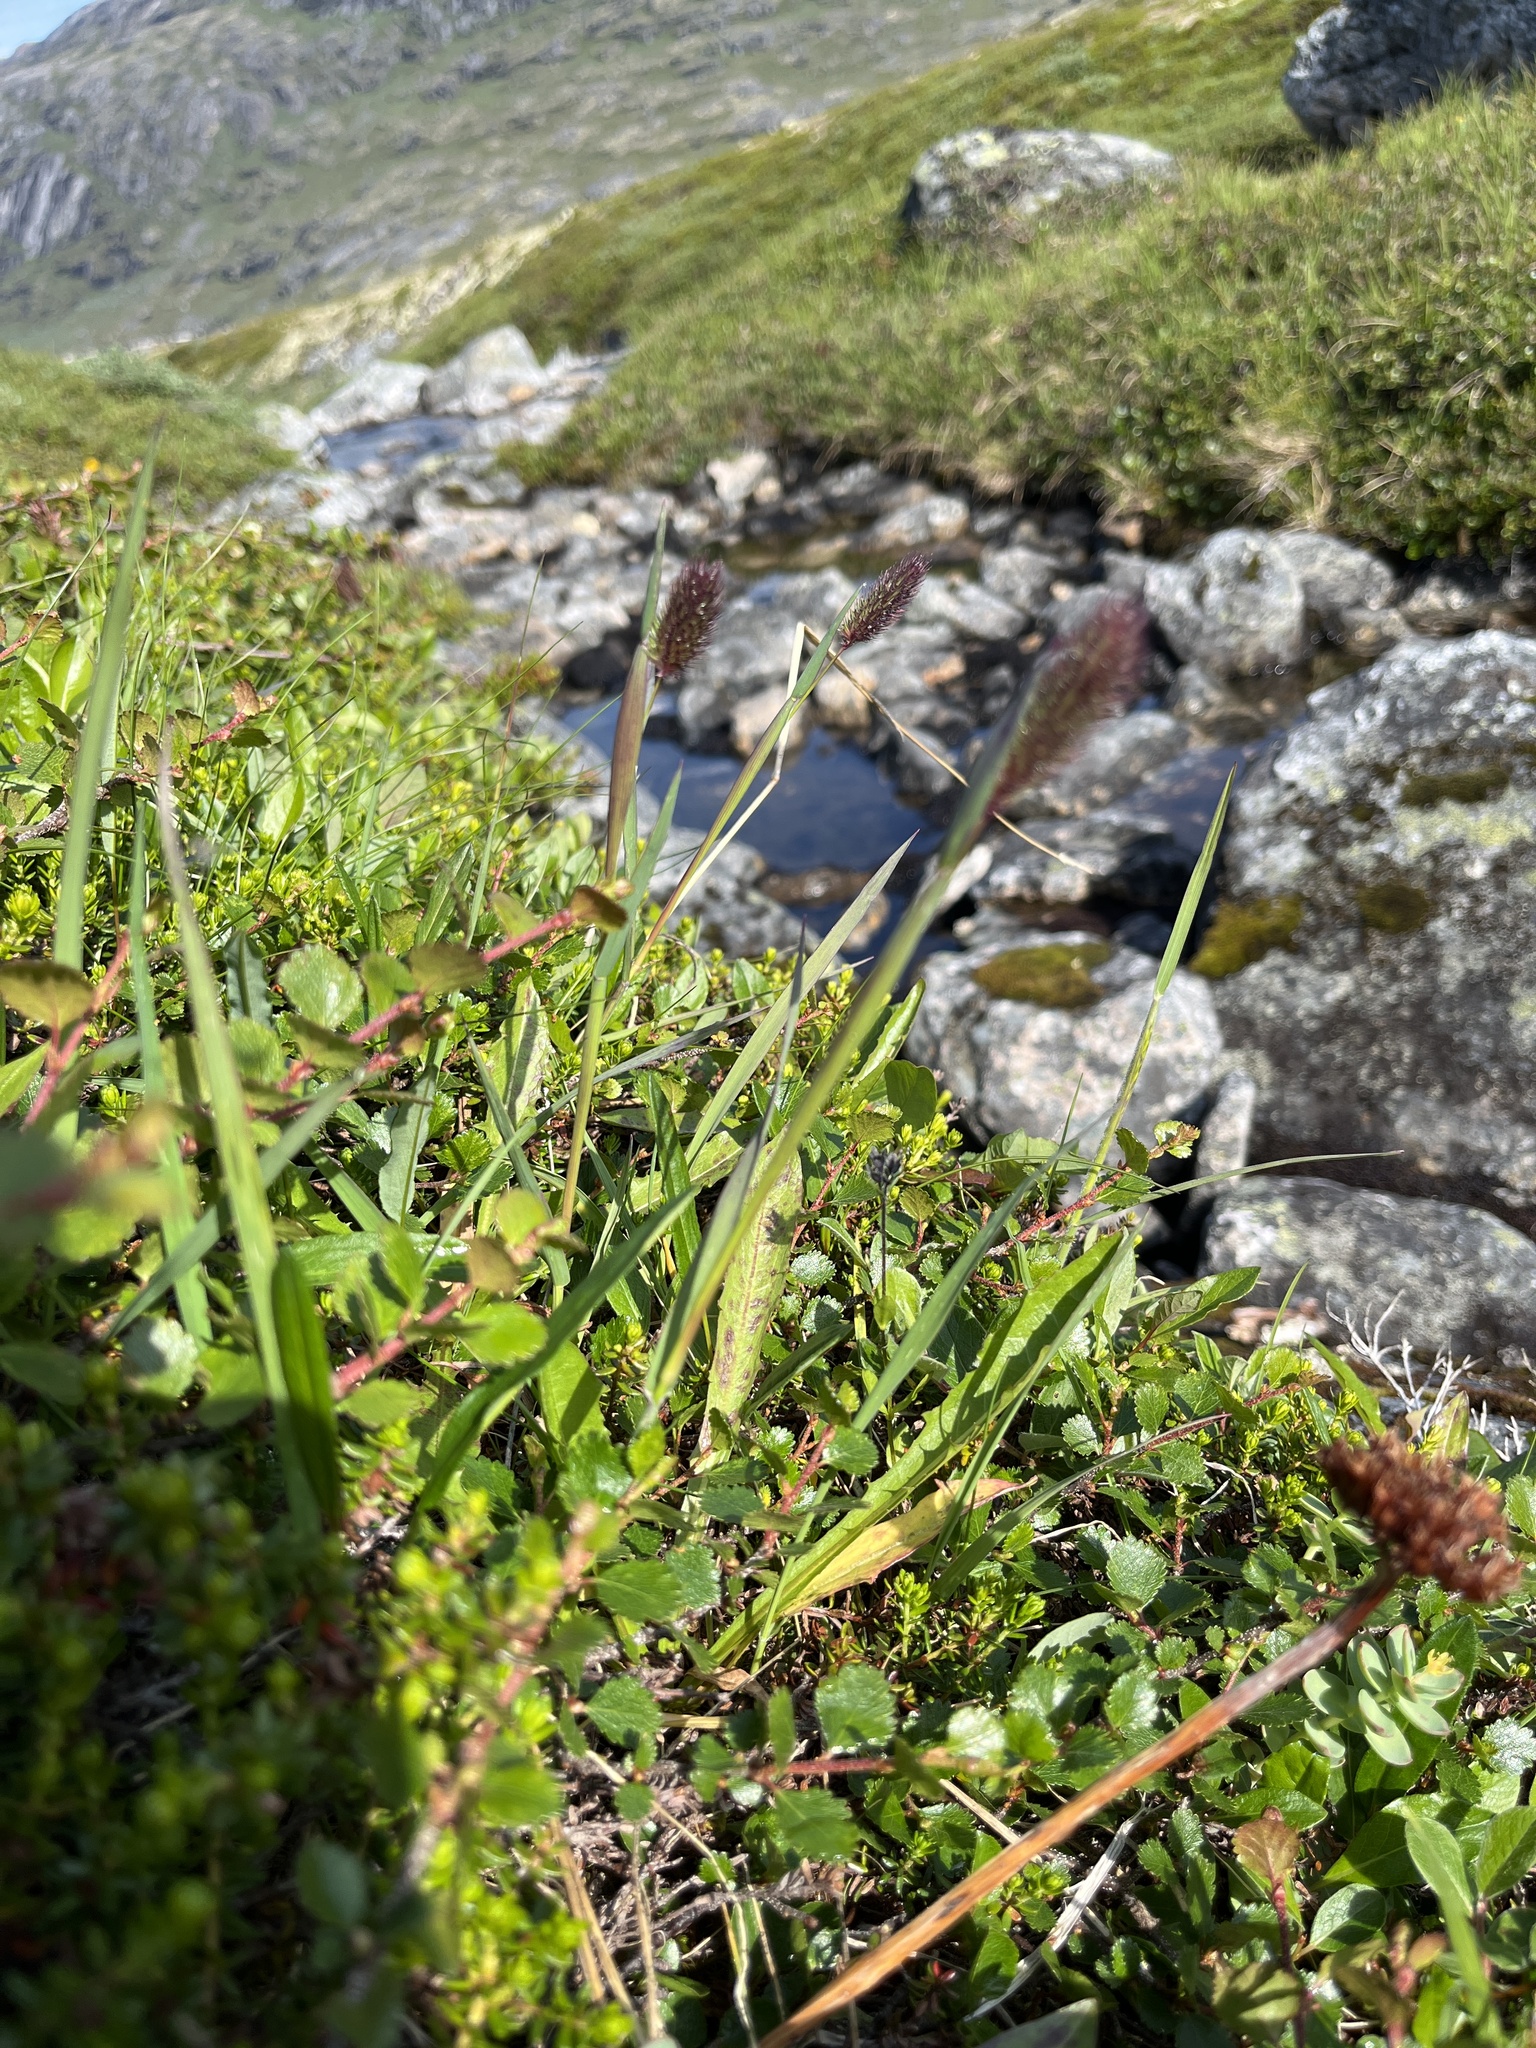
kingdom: Plantae
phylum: Tracheophyta
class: Liliopsida
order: Poales
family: Poaceae
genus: Phleum
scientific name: Phleum alpinum
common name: Alpine cat's-tail
